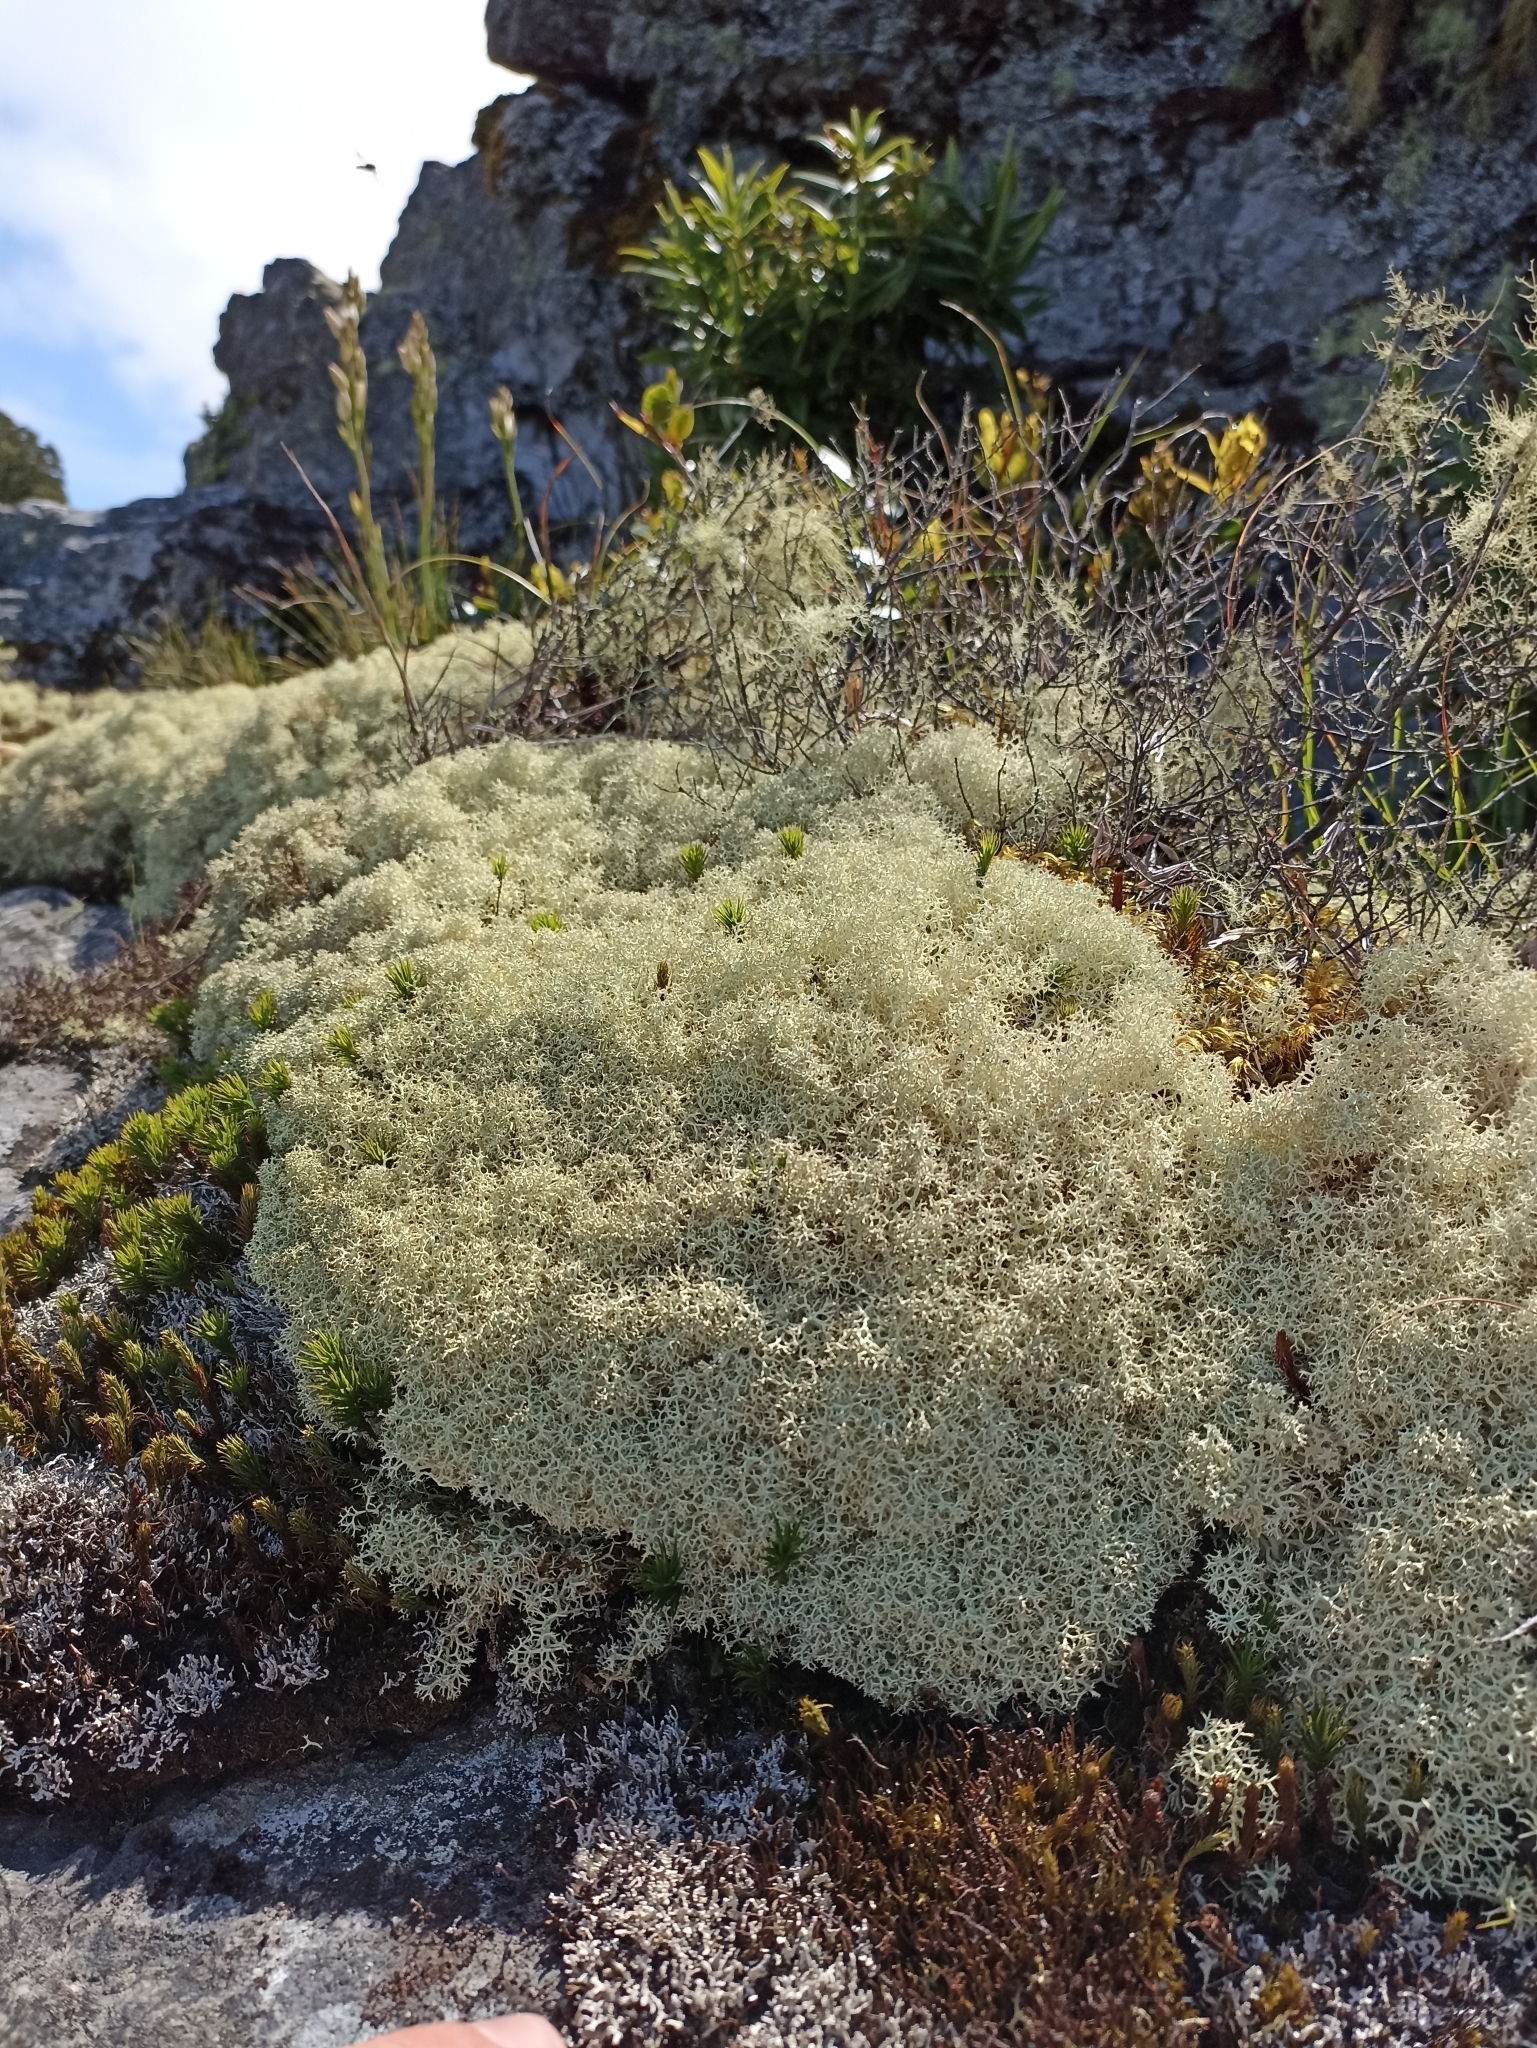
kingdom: Fungi
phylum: Ascomycota
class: Lecanoromycetes
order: Lecanorales
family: Cladoniaceae
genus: Cladonia
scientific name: Cladonia confusa
